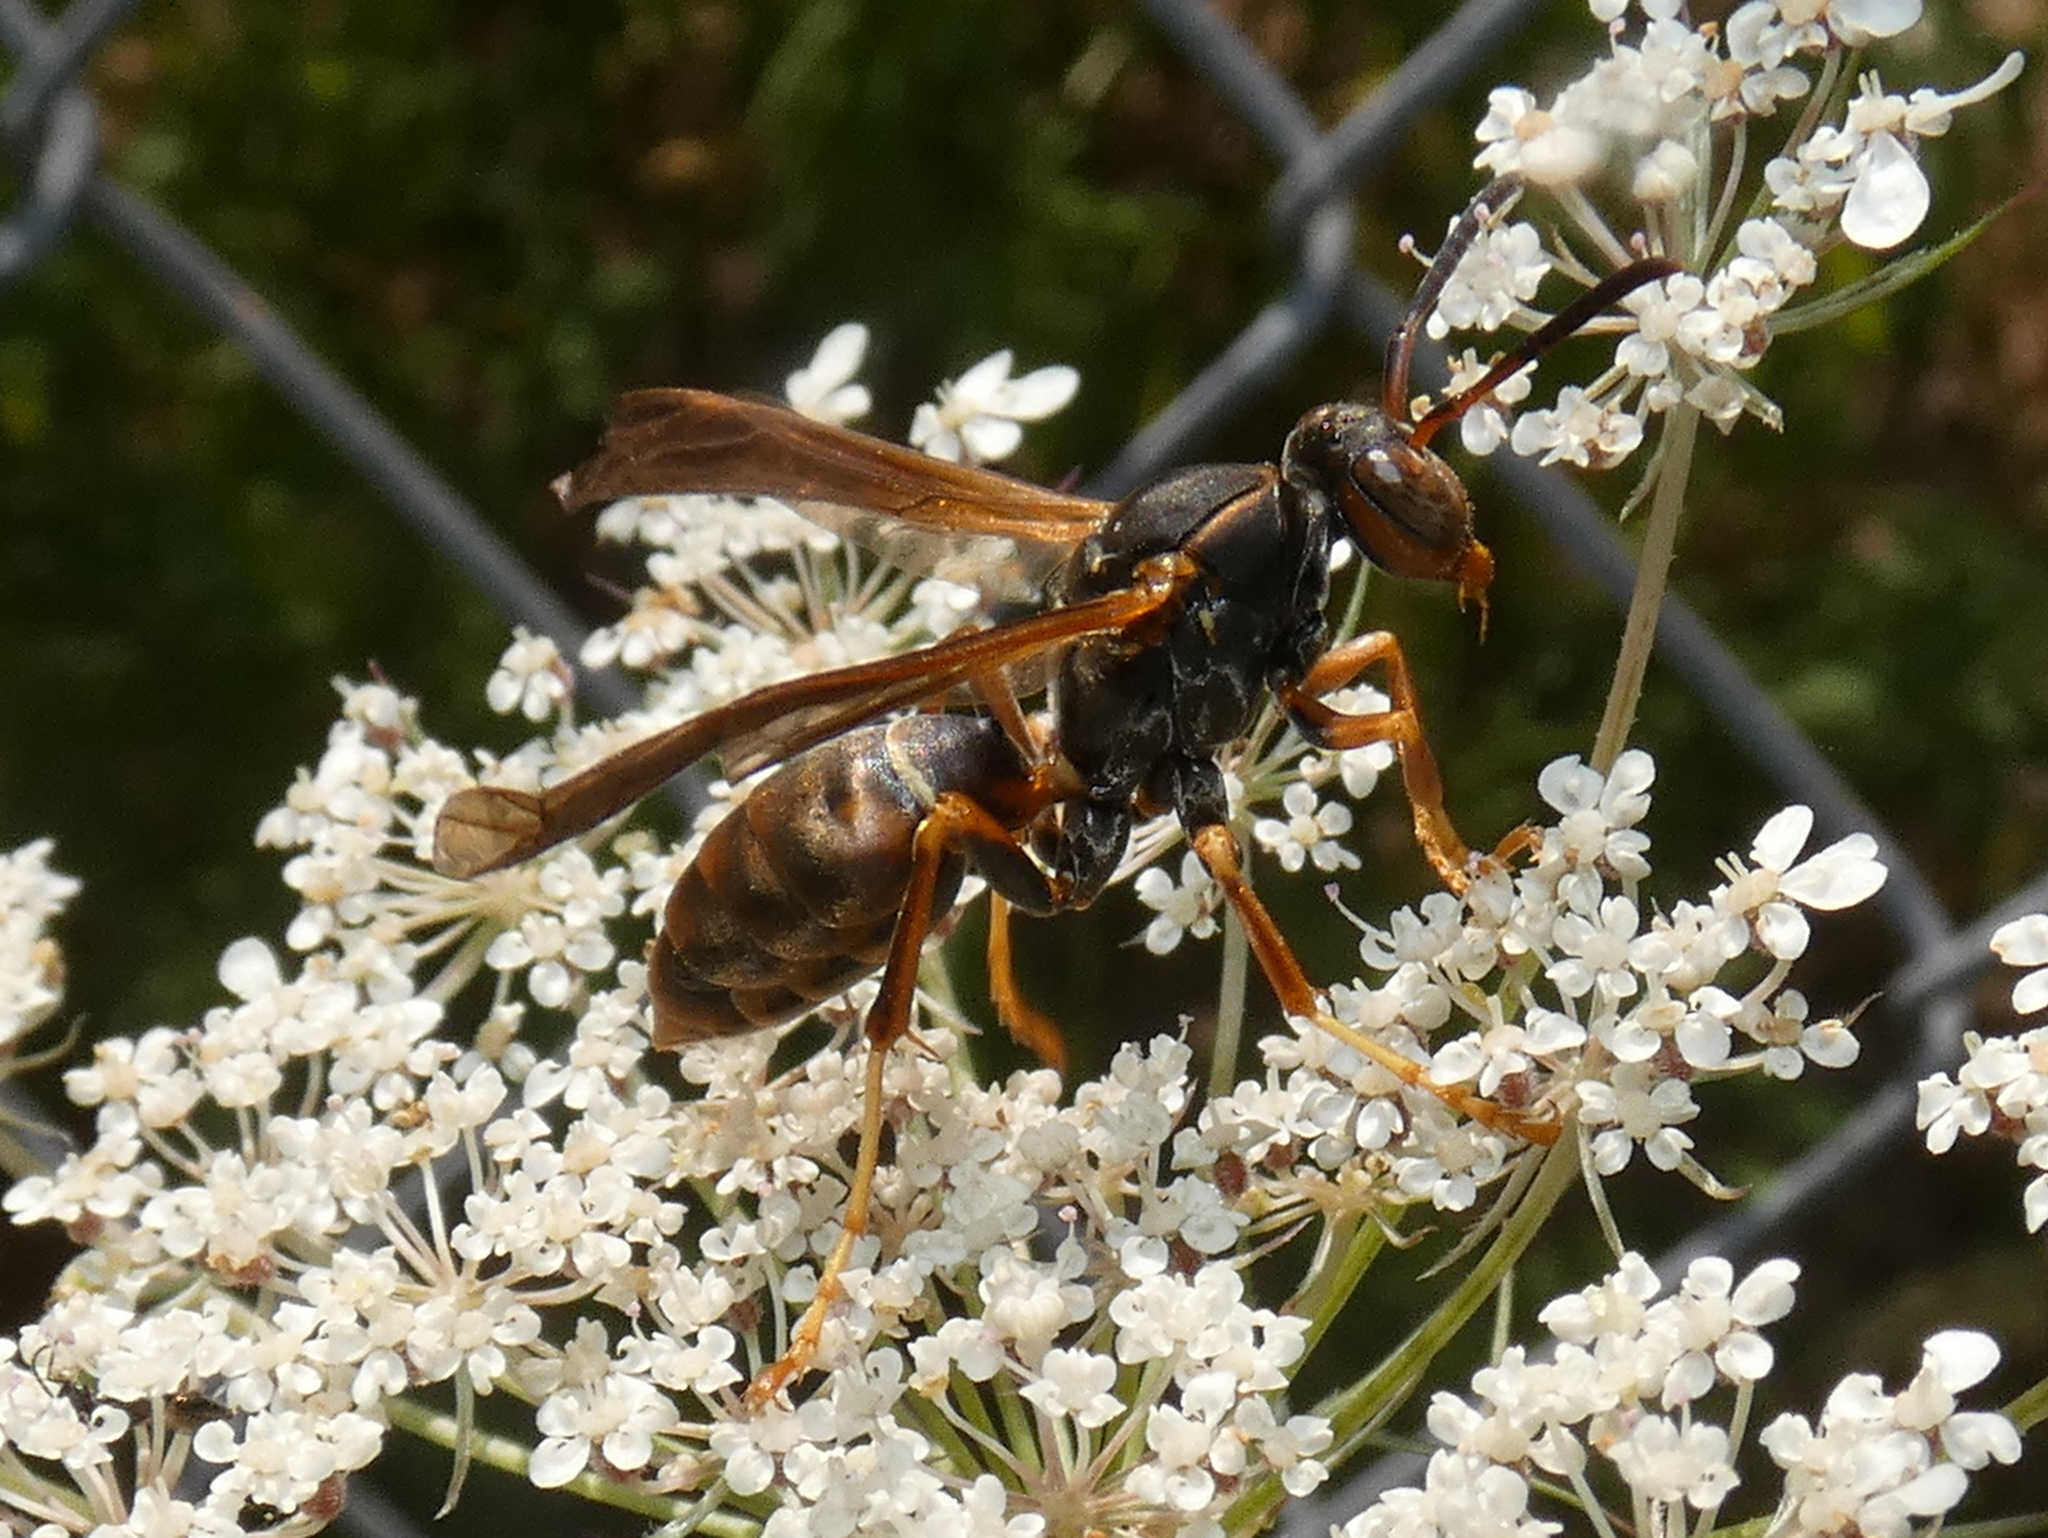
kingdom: Animalia
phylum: Arthropoda
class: Insecta
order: Hymenoptera
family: Eumenidae
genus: Polistes
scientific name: Polistes fuscatus
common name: Dark paper wasp
